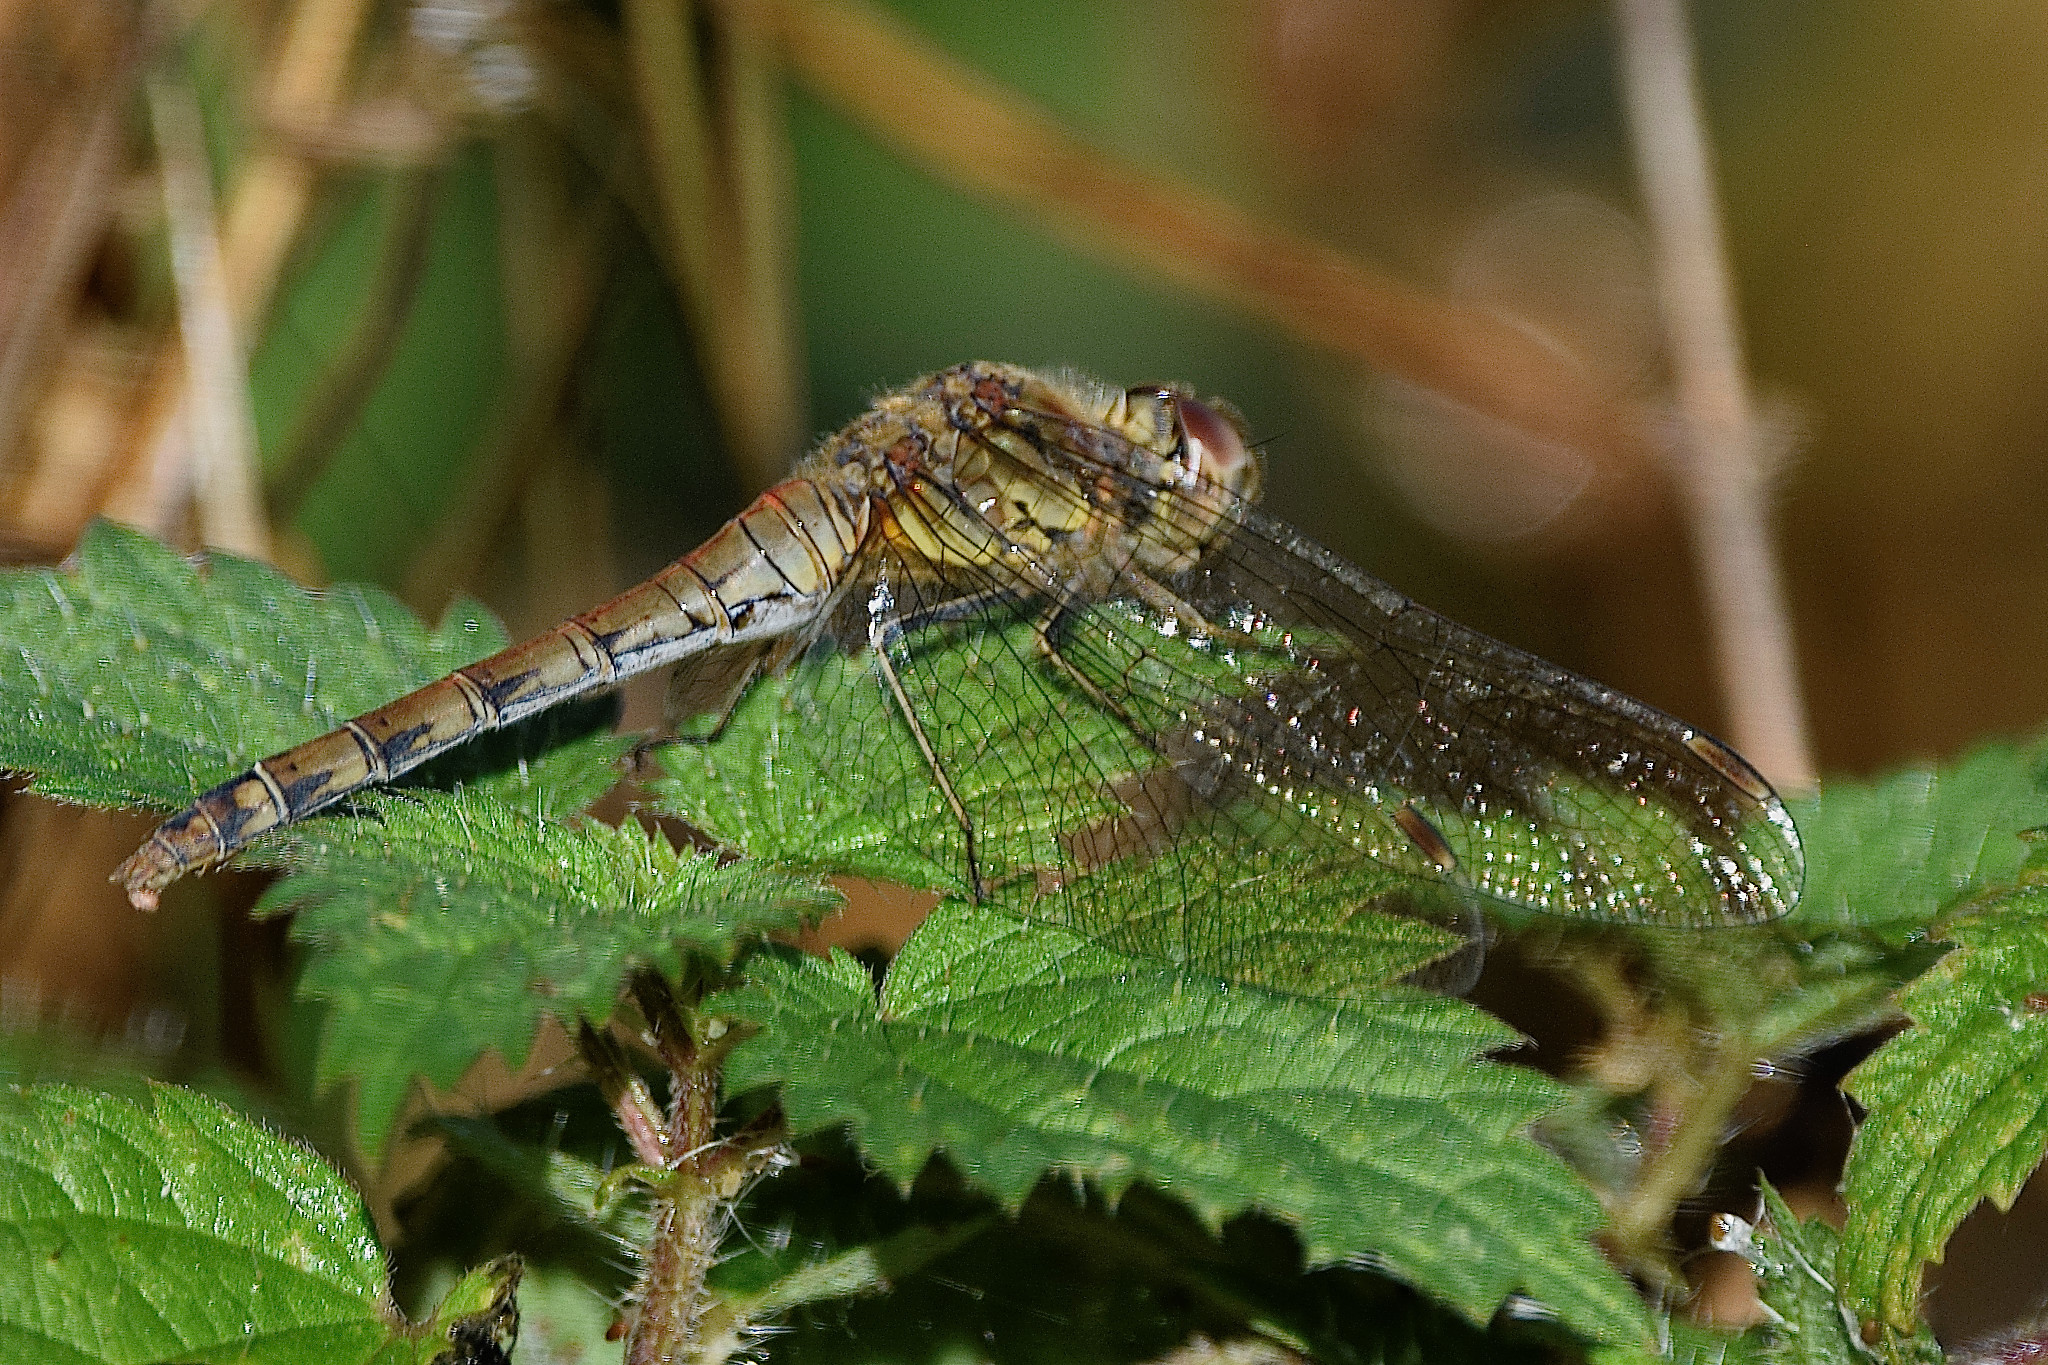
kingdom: Animalia
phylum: Arthropoda
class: Insecta
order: Odonata
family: Libellulidae
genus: Sympetrum
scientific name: Sympetrum striolatum
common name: Common darter
